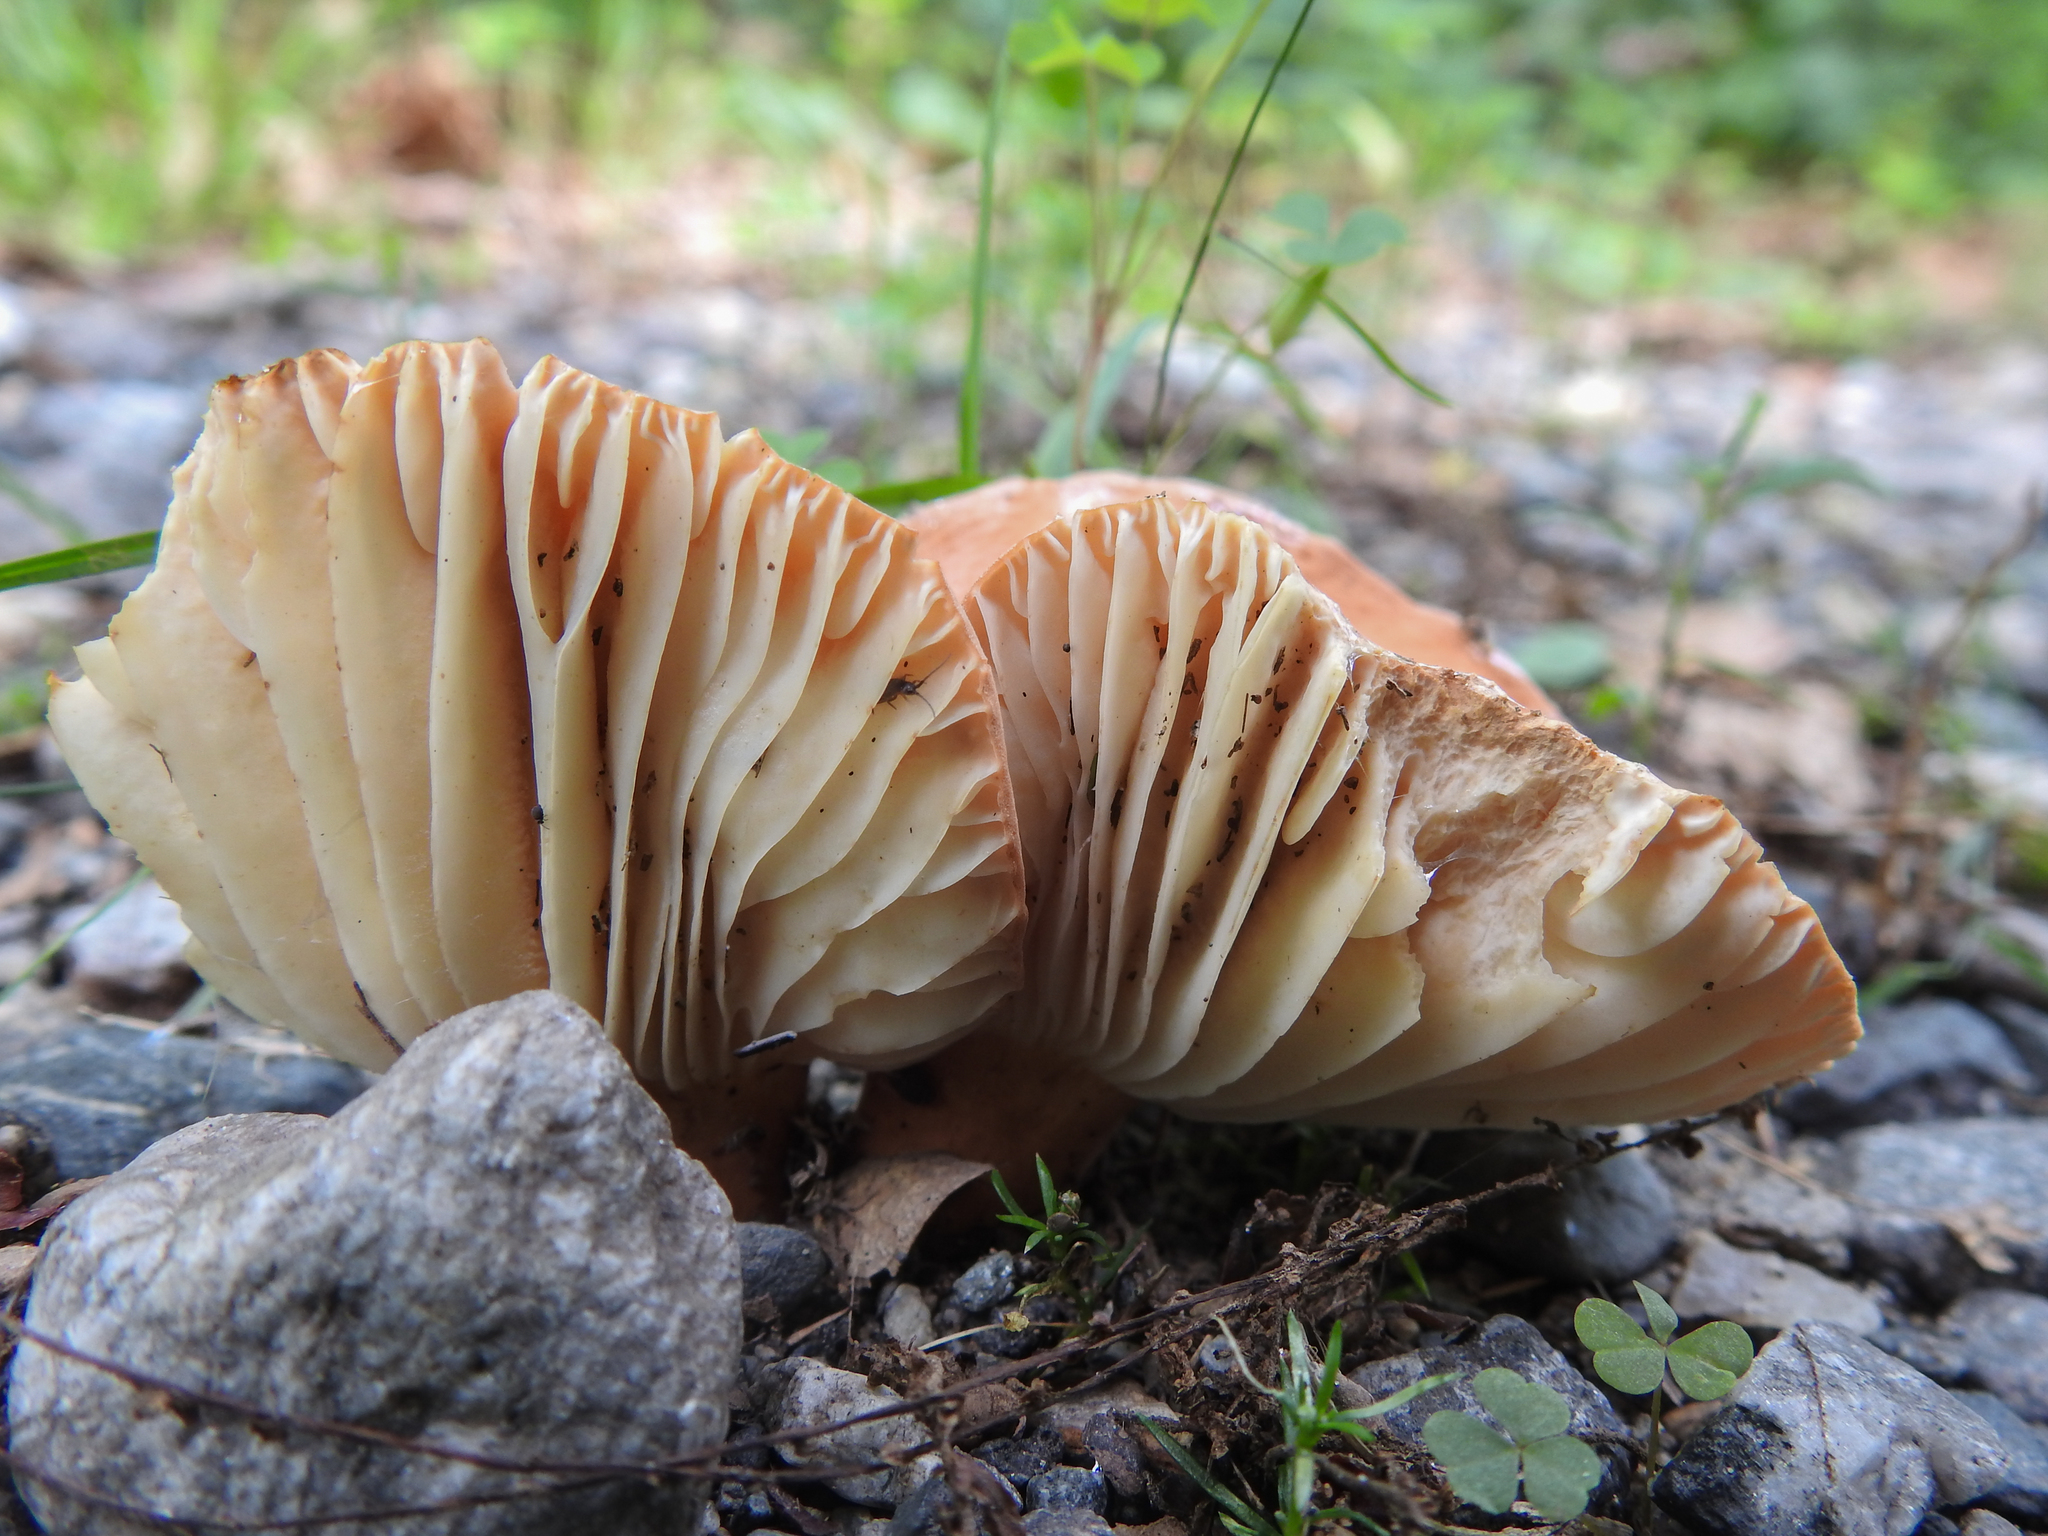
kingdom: Fungi
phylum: Basidiomycota
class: Agaricomycetes
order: Russulales
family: Russulaceae
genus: Lactarius
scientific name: Lactarius hygrophoroides
